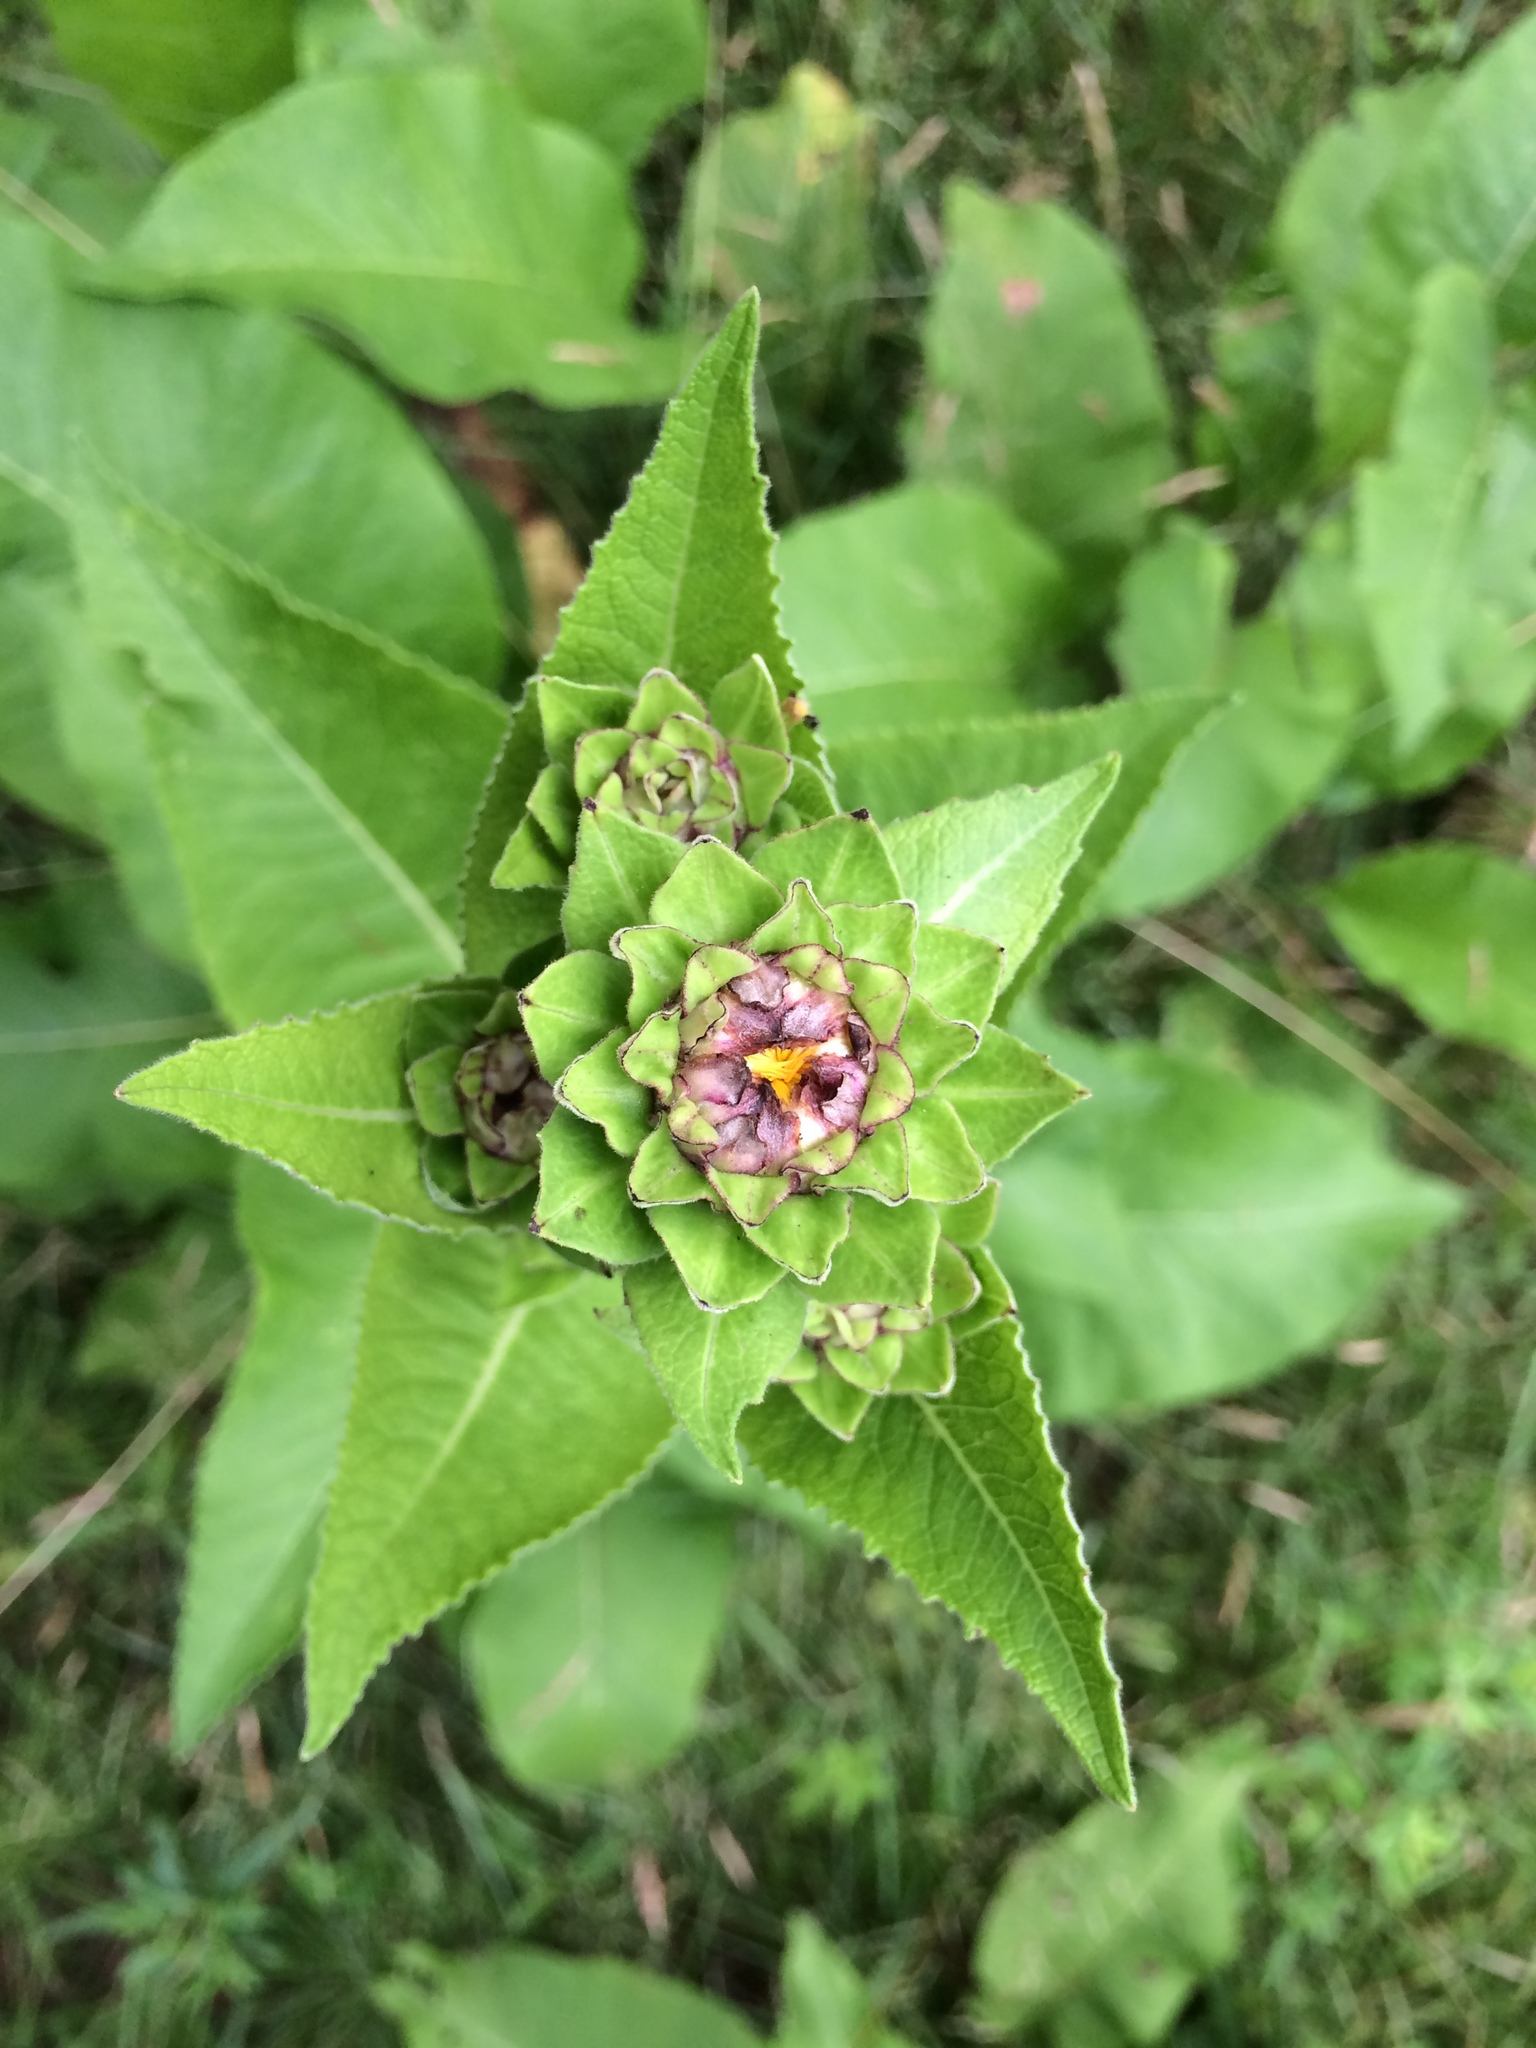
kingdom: Plantae
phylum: Tracheophyta
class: Magnoliopsida
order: Asterales
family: Asteraceae
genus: Inula
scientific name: Inula helenium
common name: Elecampane
